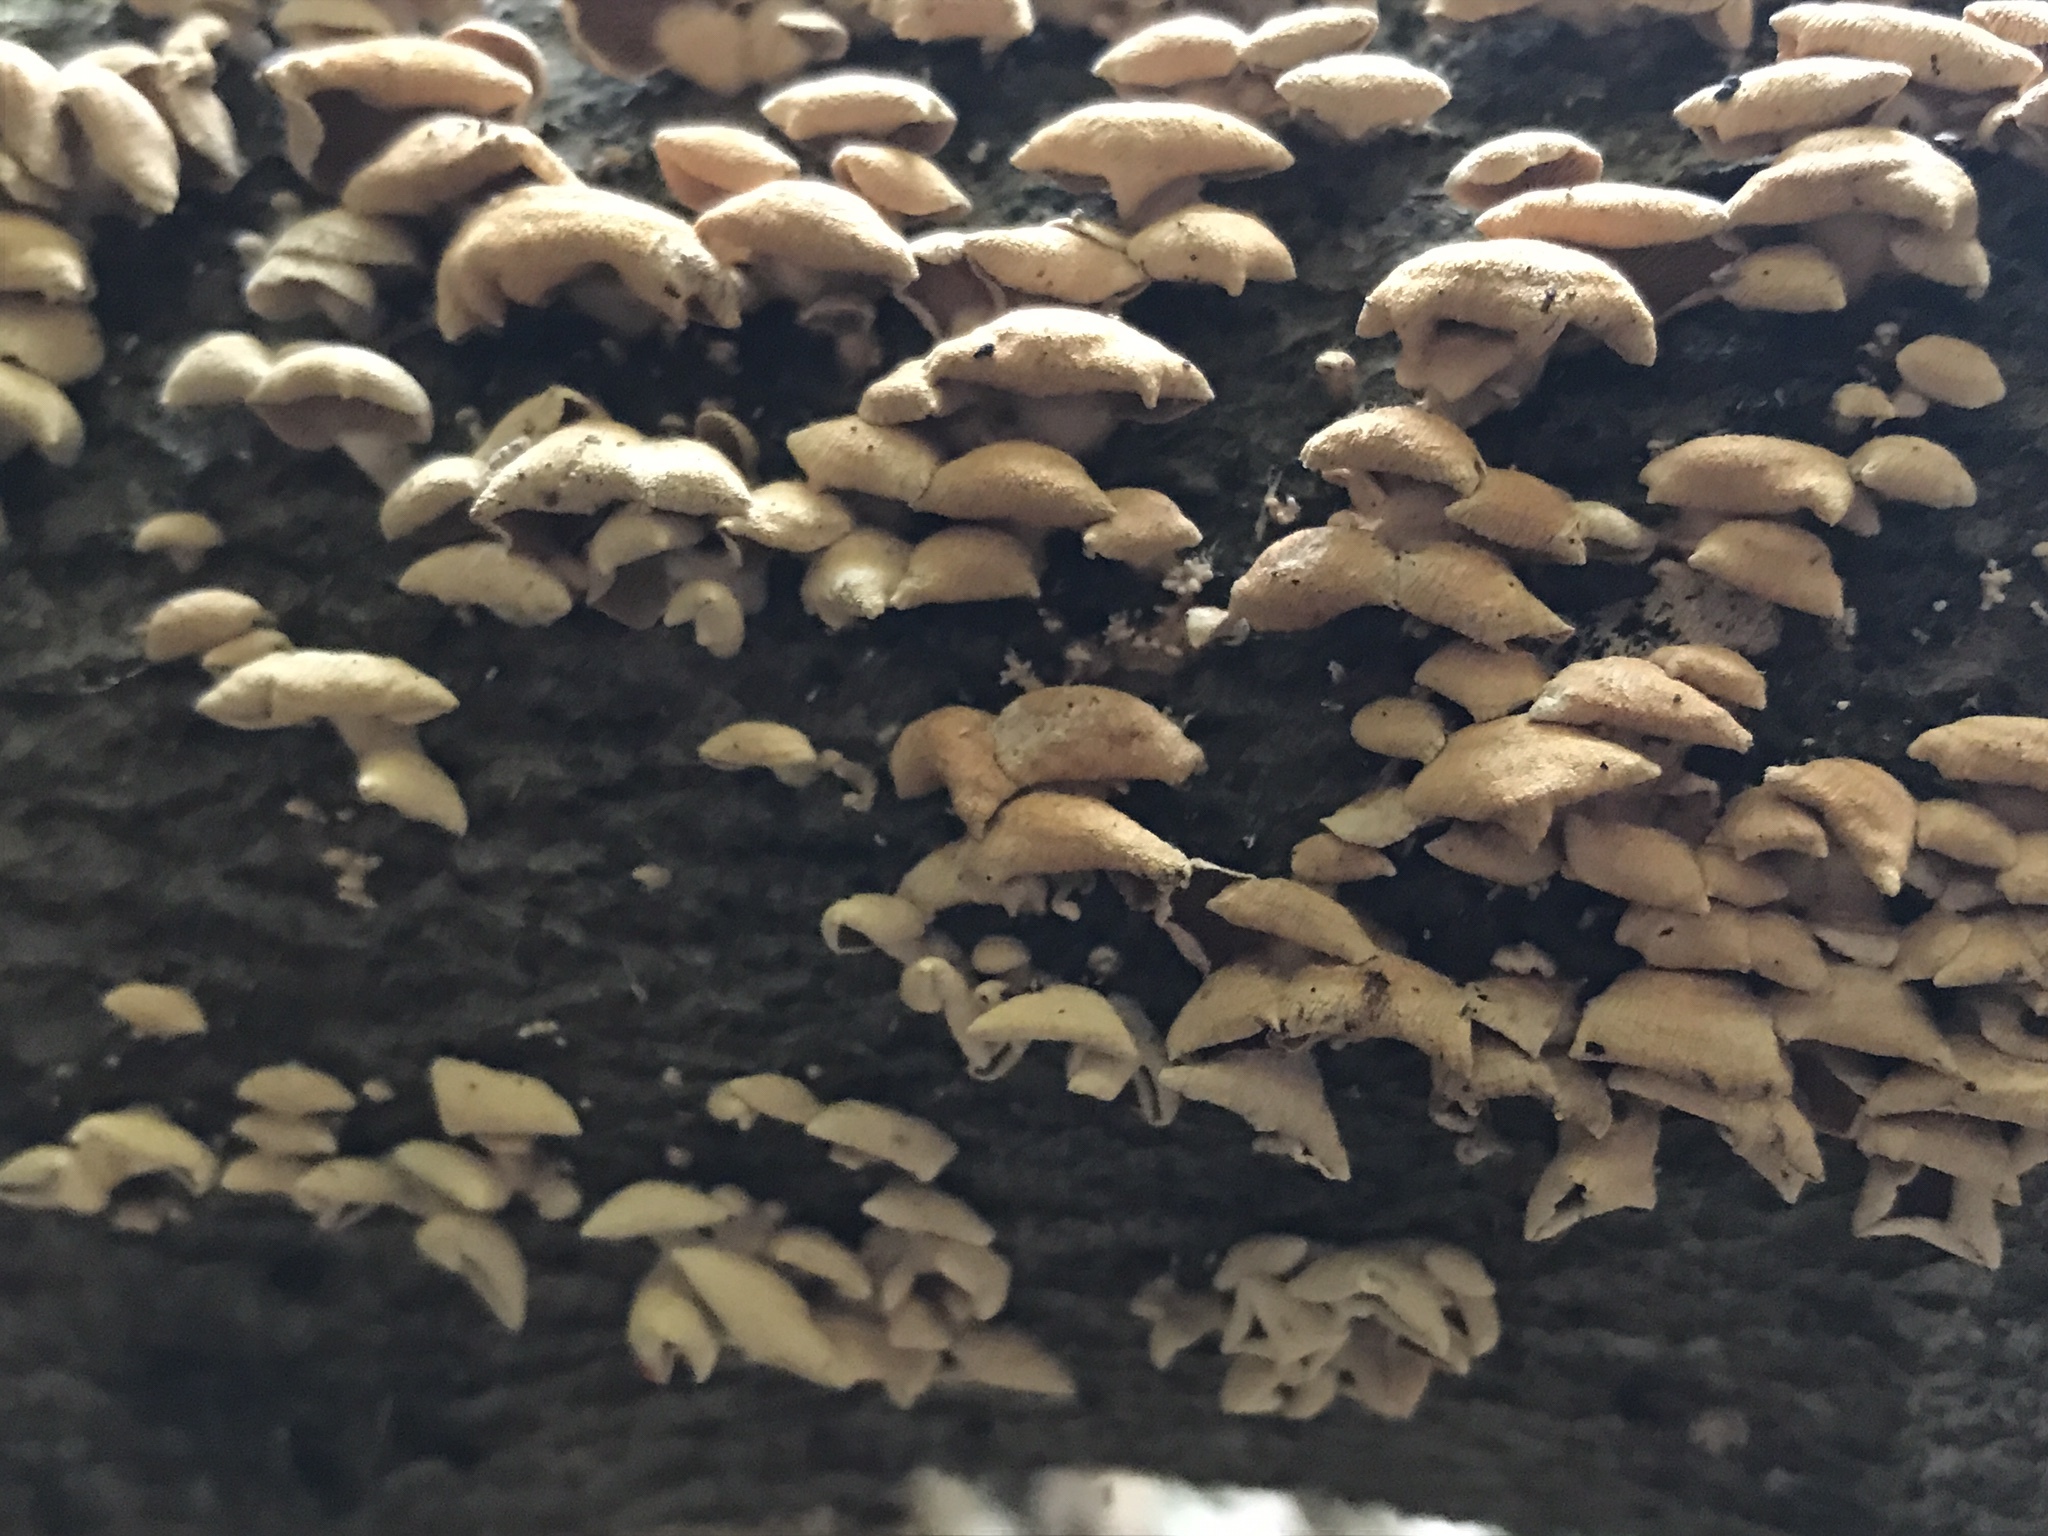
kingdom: Fungi
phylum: Basidiomycota
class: Agaricomycetes
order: Agaricales
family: Mycenaceae
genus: Panellus
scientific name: Panellus stipticus
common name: Bitter oysterling
